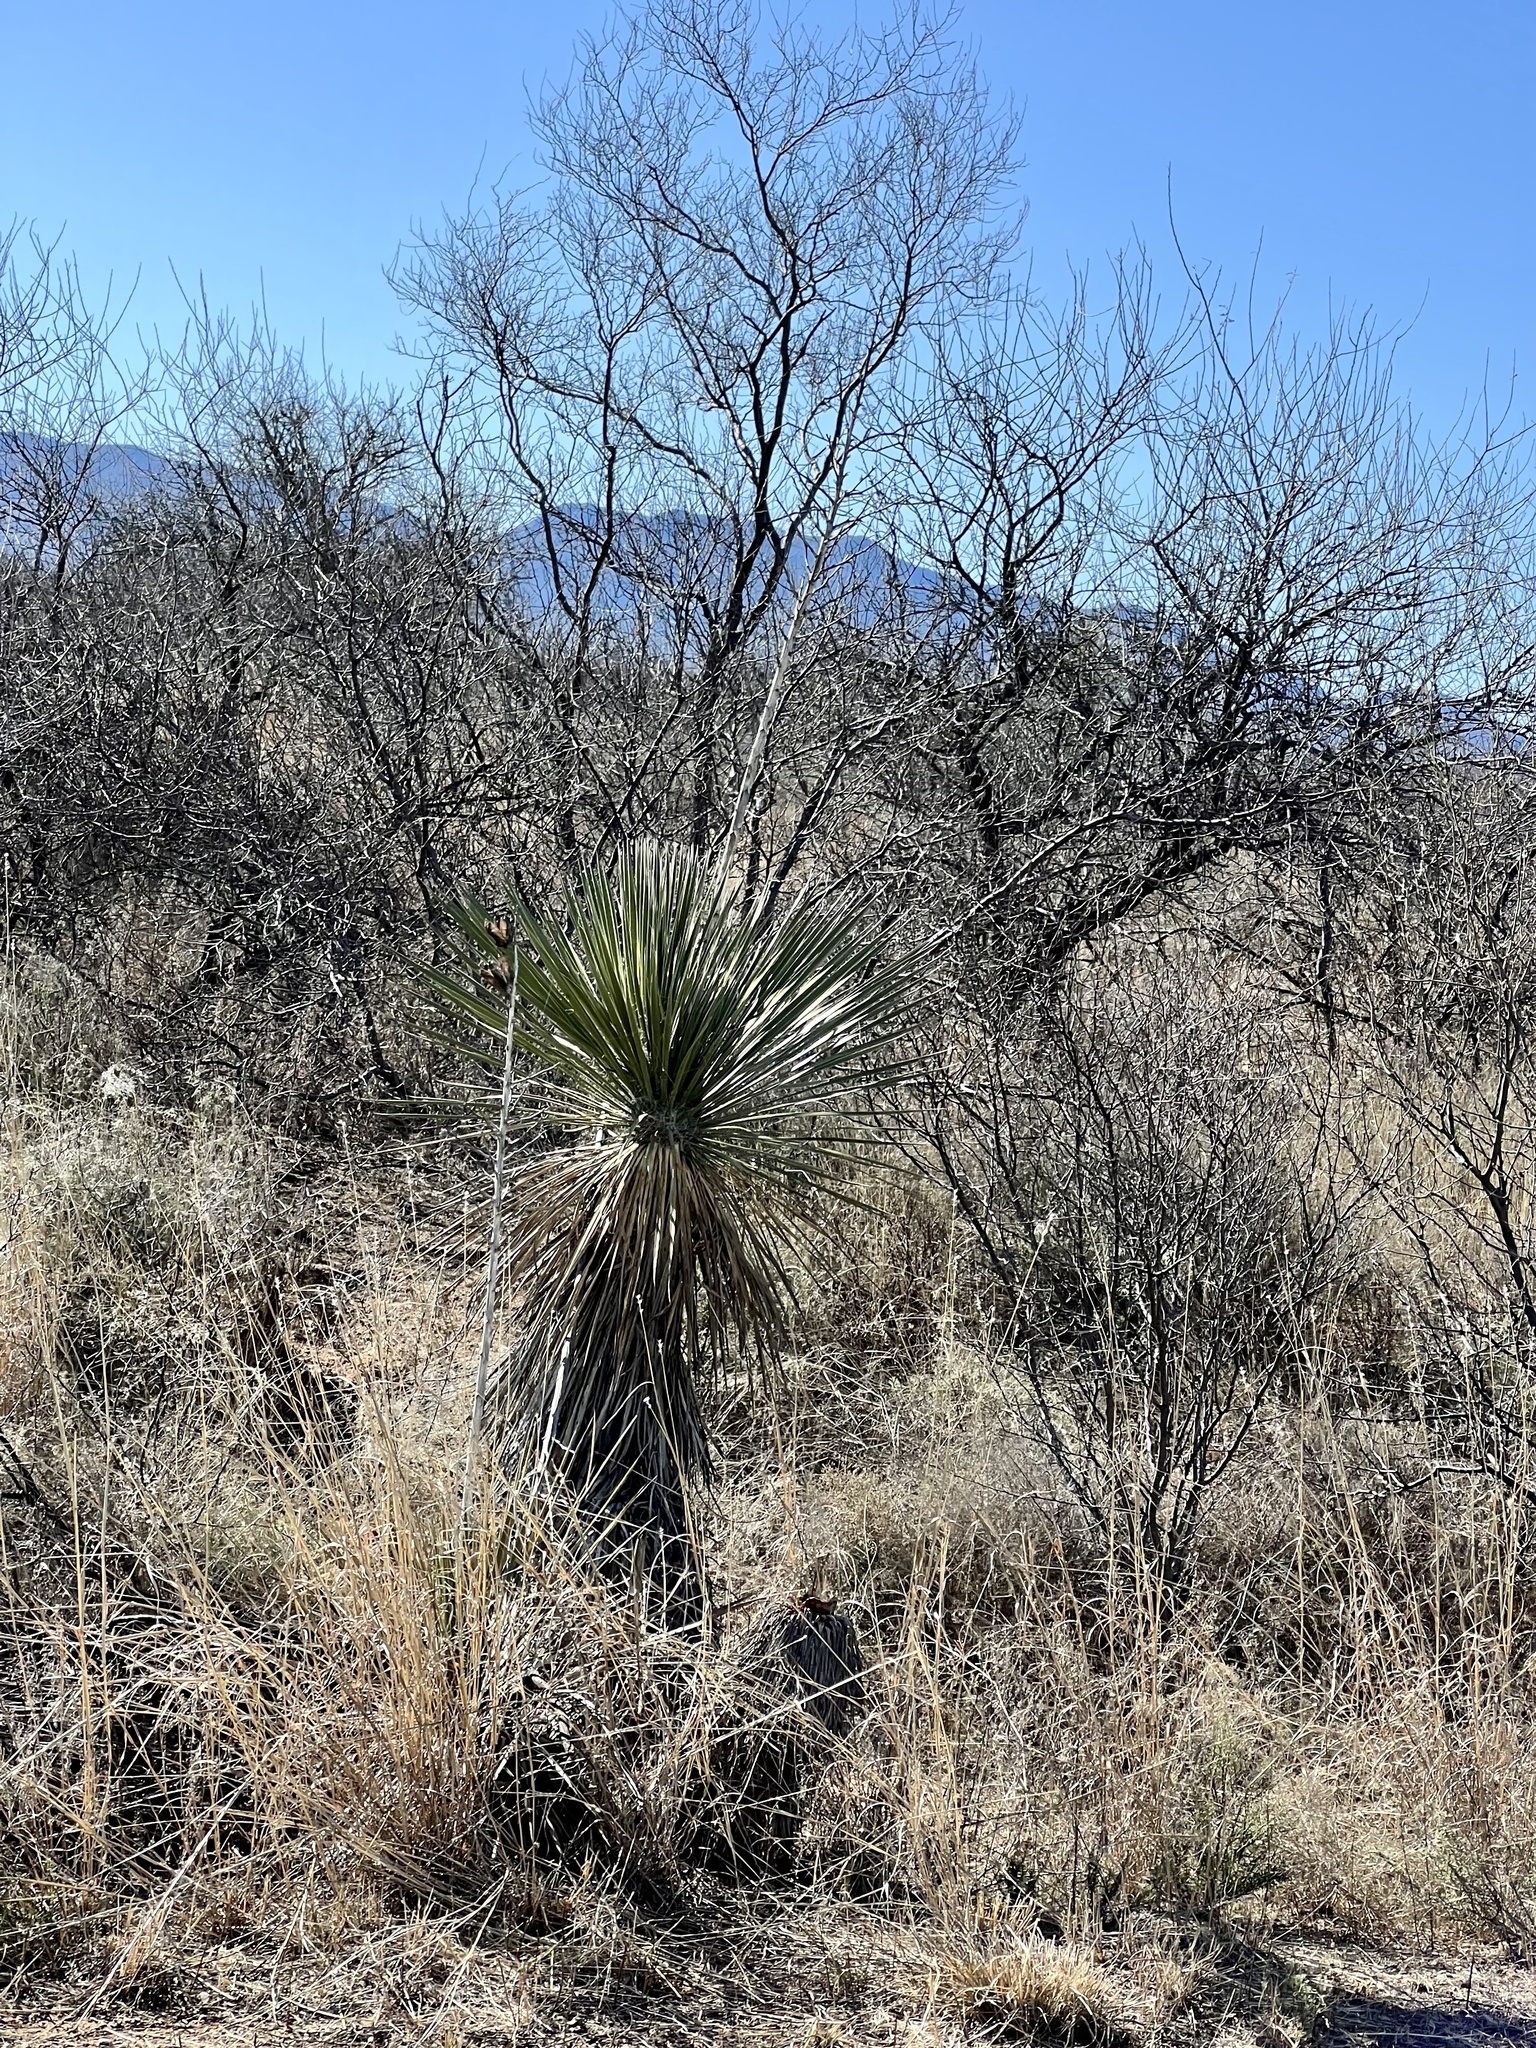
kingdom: Plantae
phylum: Tracheophyta
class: Liliopsida
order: Asparagales
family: Asparagaceae
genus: Yucca
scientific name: Yucca elata
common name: Palmella
